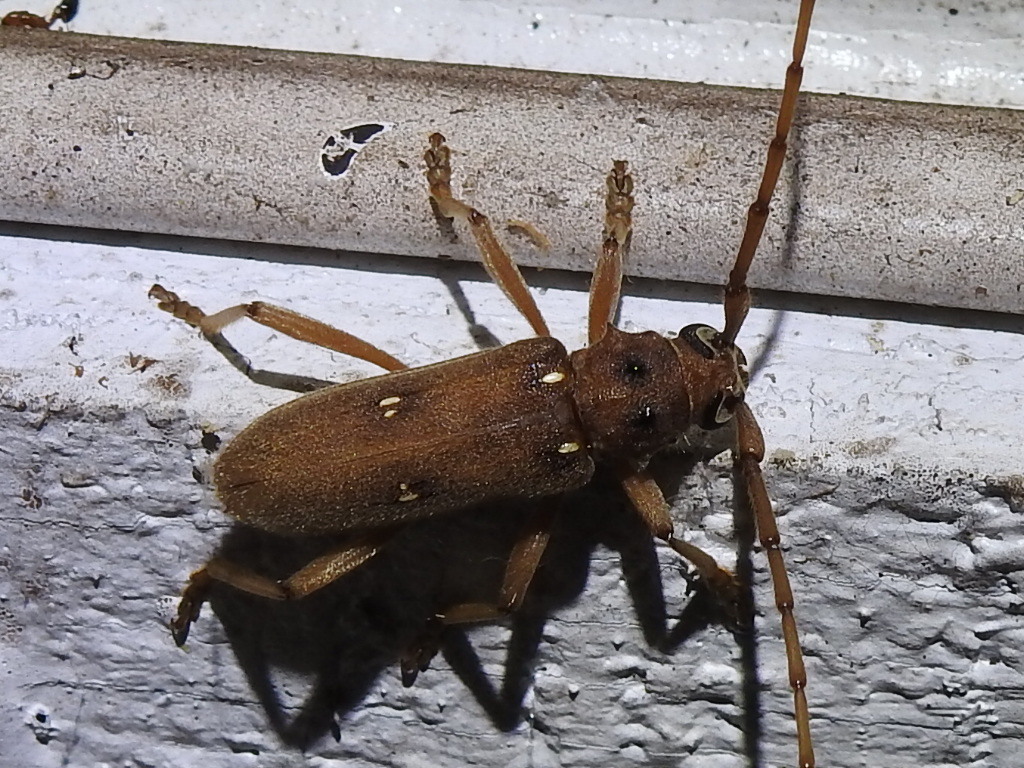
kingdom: Animalia
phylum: Arthropoda
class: Insecta
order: Coleoptera
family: Cerambycidae
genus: Eburia
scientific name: Eburia haldemani
